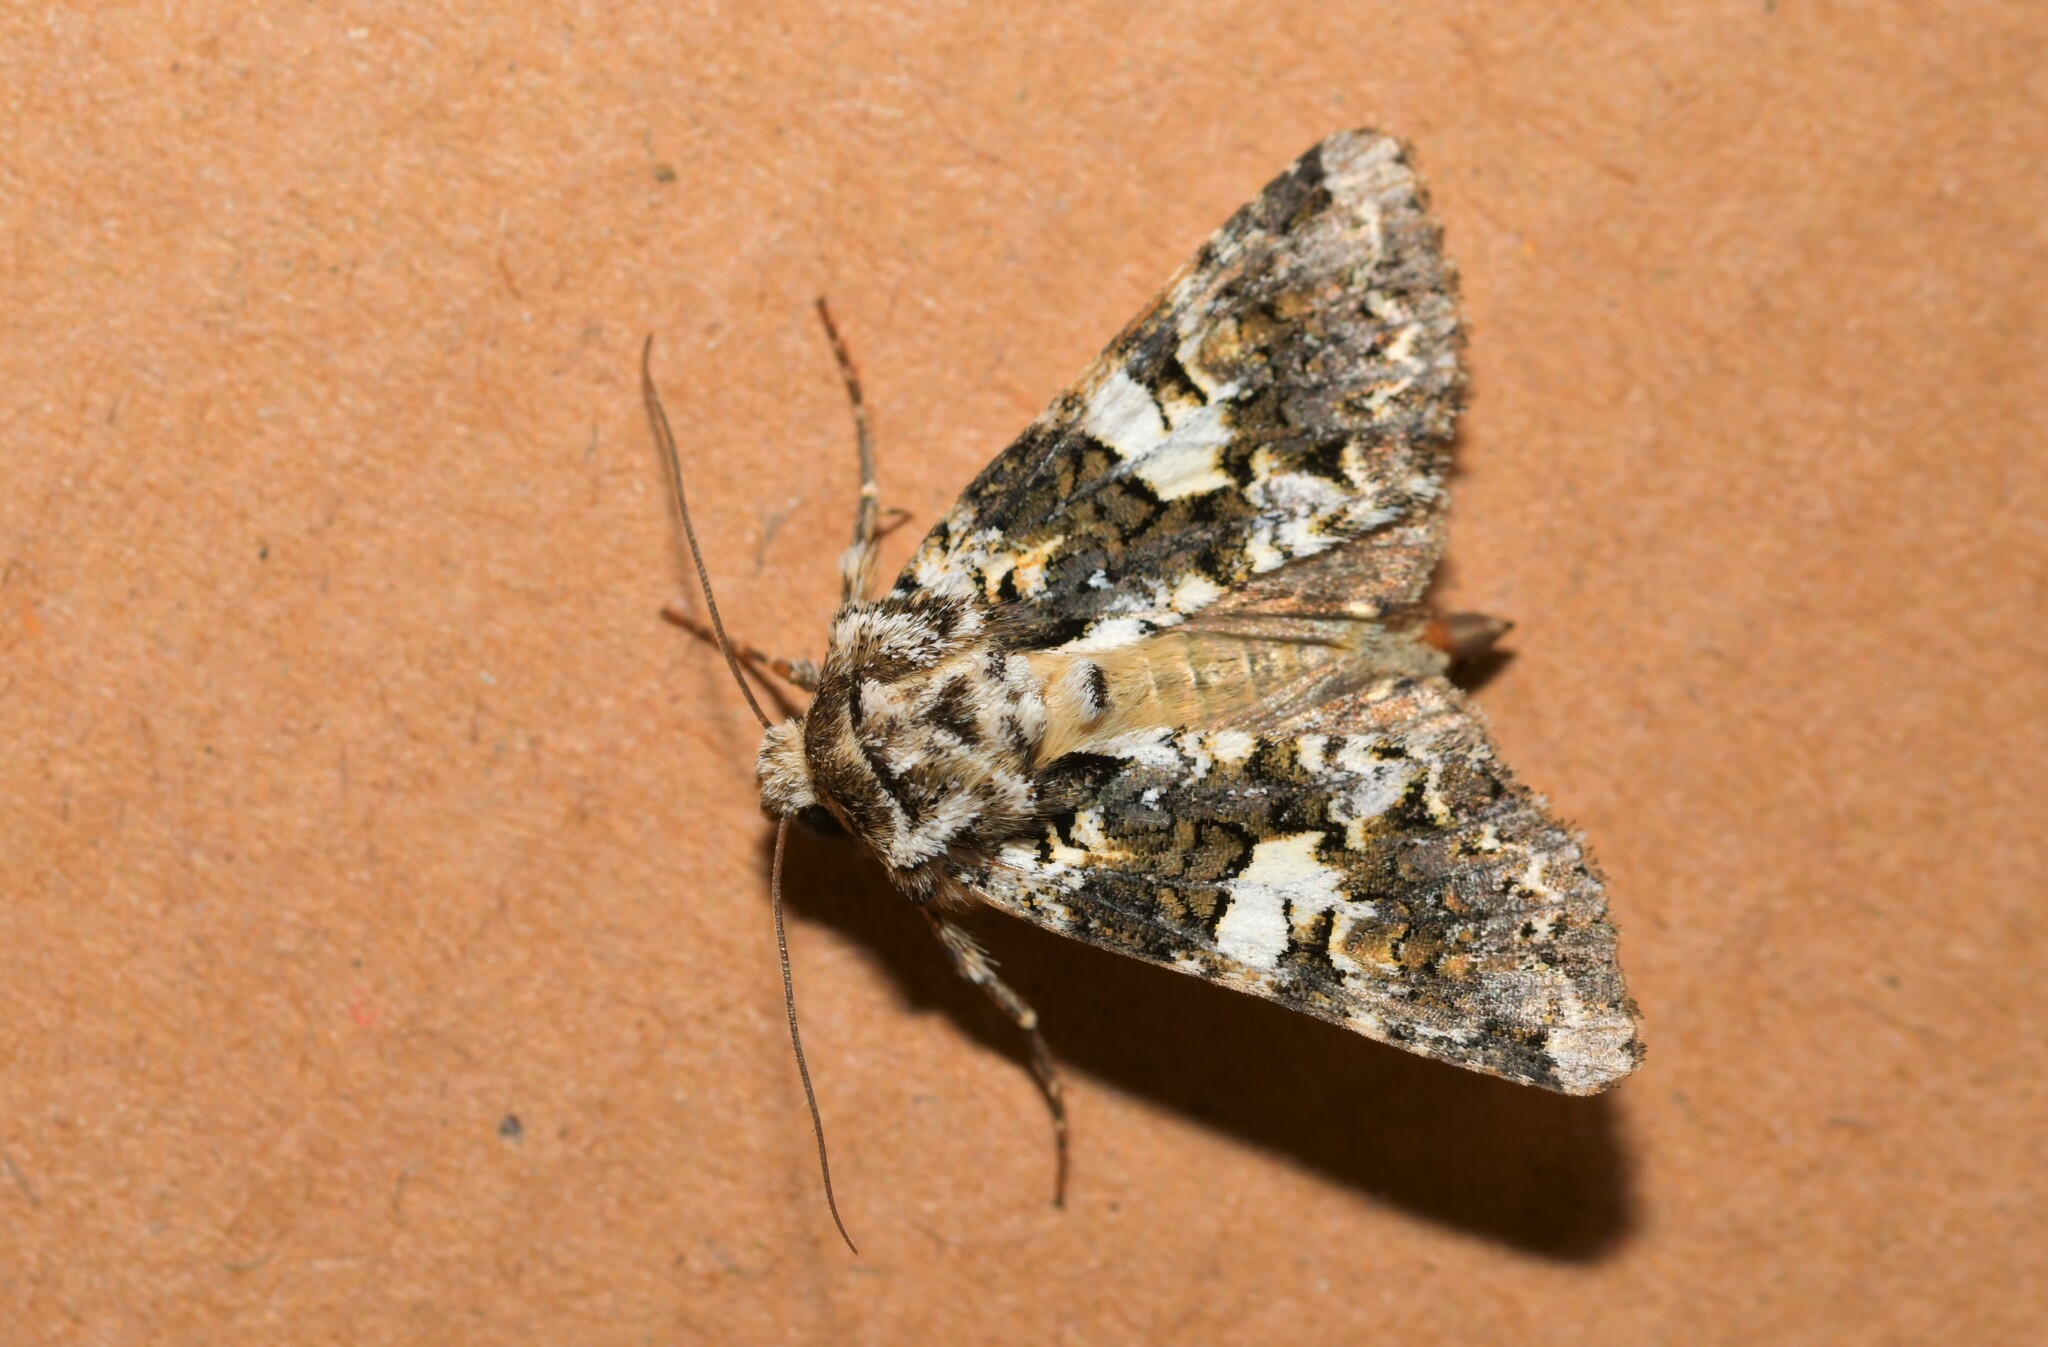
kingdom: Animalia
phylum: Arthropoda
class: Insecta
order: Lepidoptera
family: Noctuidae
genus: Hadena
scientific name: Hadena confusa
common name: Marbled coronet
